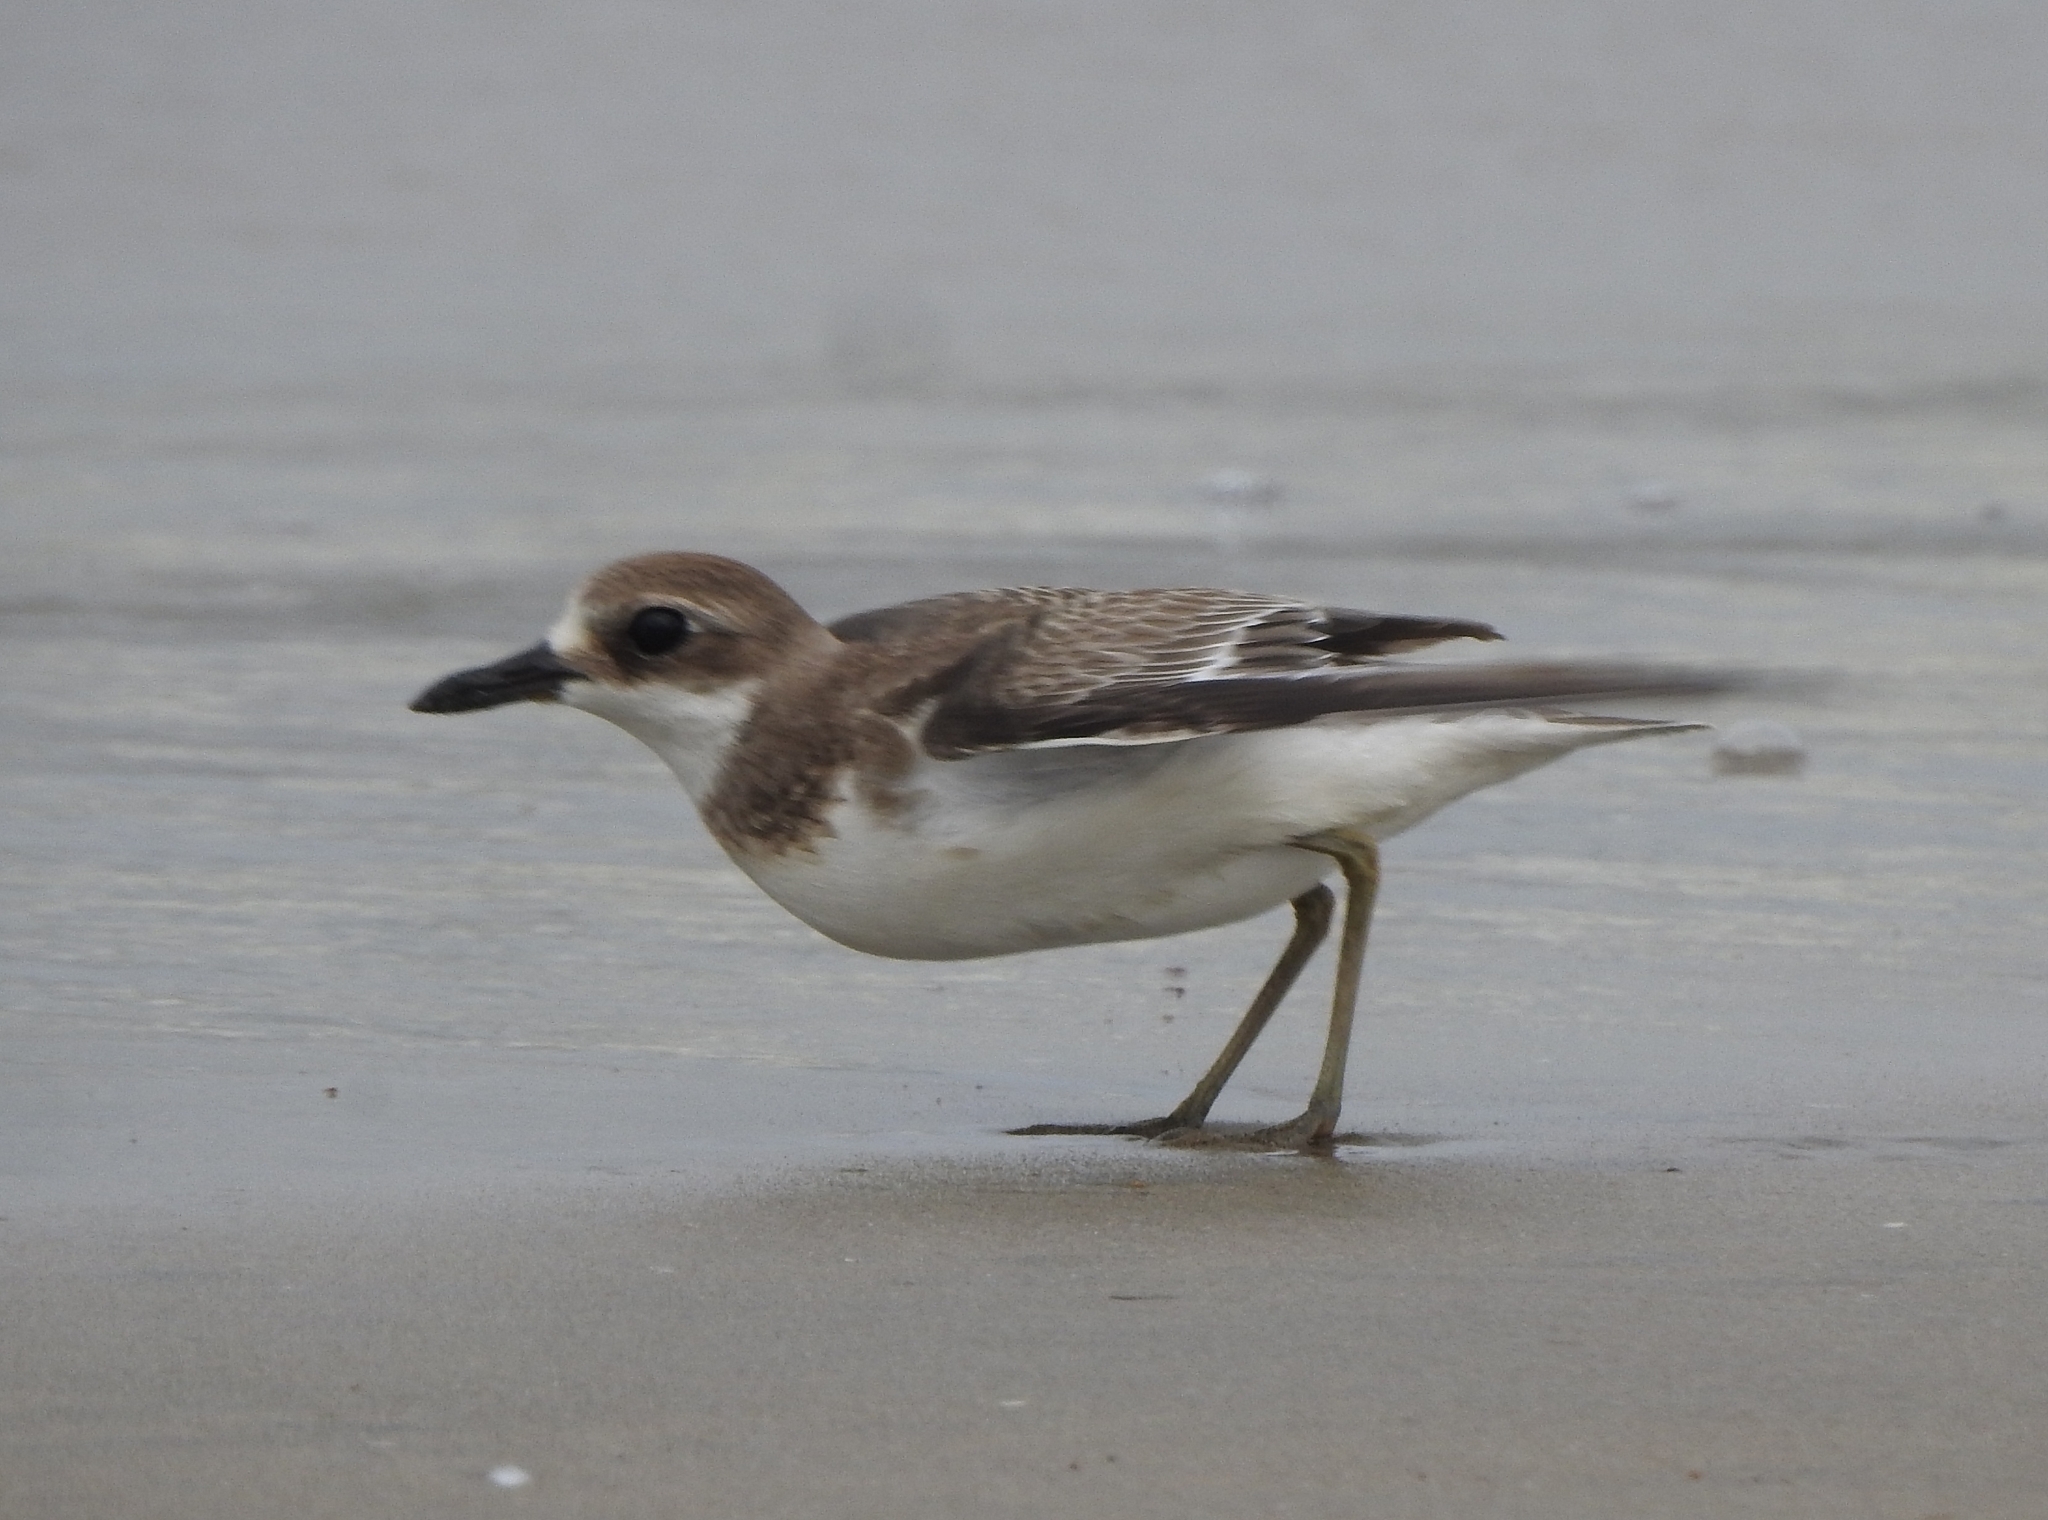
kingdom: Animalia
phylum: Chordata
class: Aves
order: Charadriiformes
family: Charadriidae
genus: Charadrius
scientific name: Charadrius leschenaultii
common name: Greater sand plover
